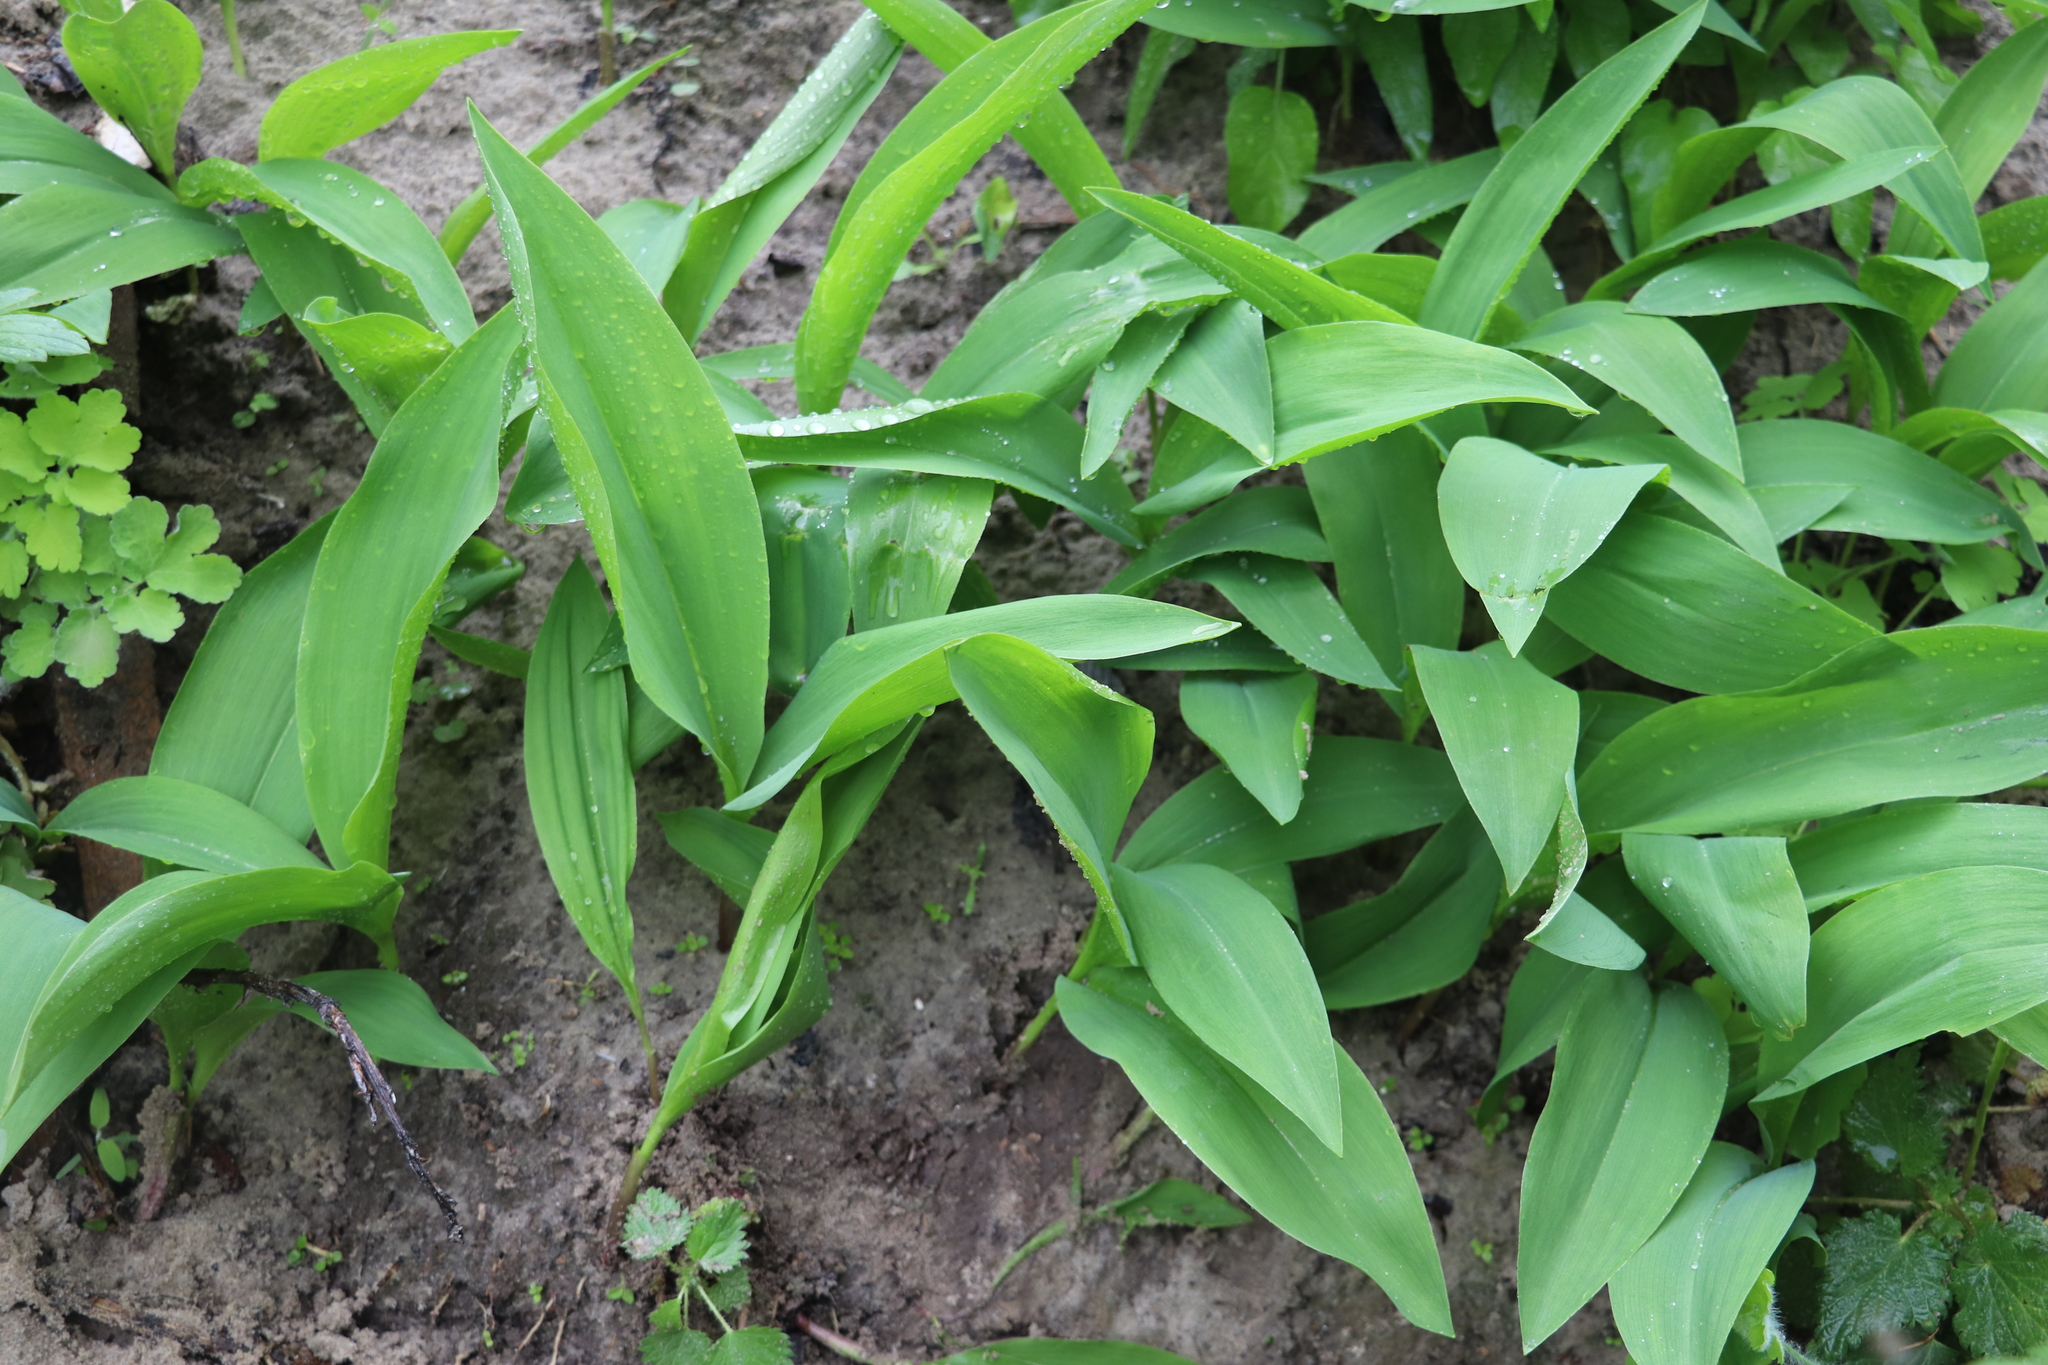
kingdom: Plantae
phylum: Tracheophyta
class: Liliopsida
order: Asparagales
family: Asparagaceae
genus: Convallaria
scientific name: Convallaria majalis
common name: Lily-of-the-valley
